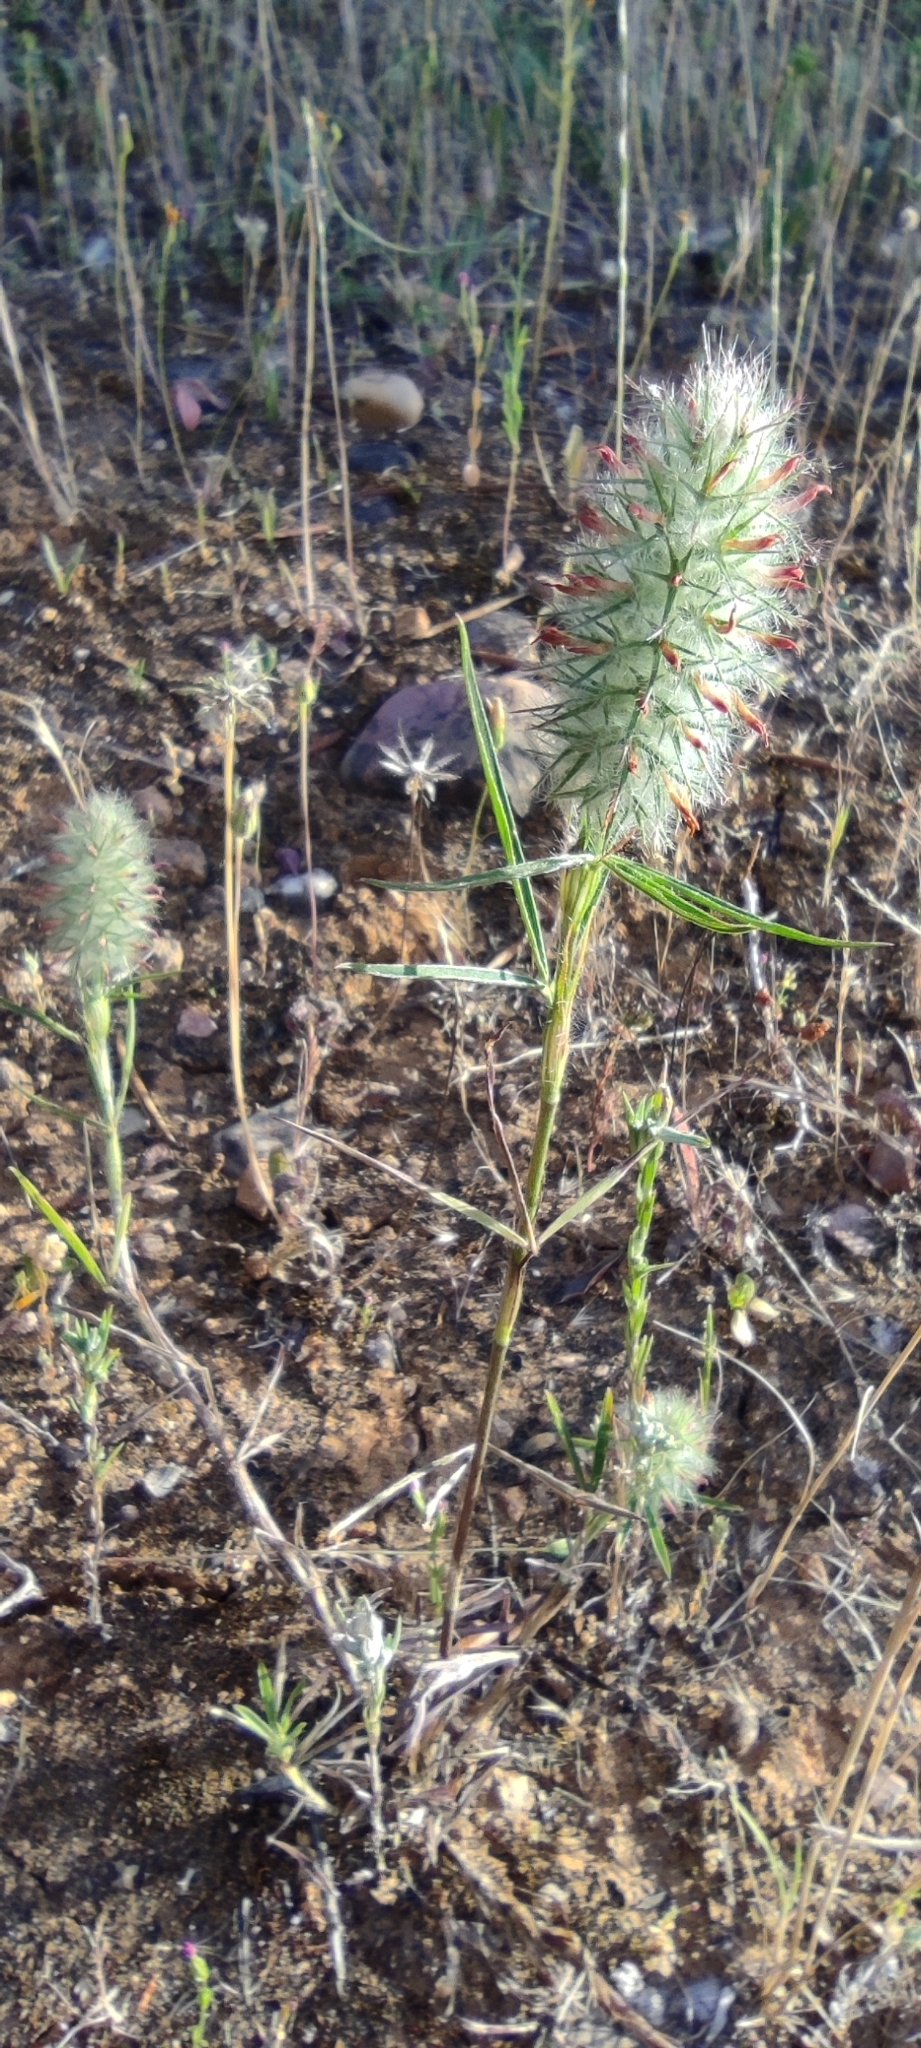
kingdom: Plantae
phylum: Tracheophyta
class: Magnoliopsida
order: Fabales
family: Fabaceae
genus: Trifolium
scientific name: Trifolium angustifolium
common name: Narrow clover
